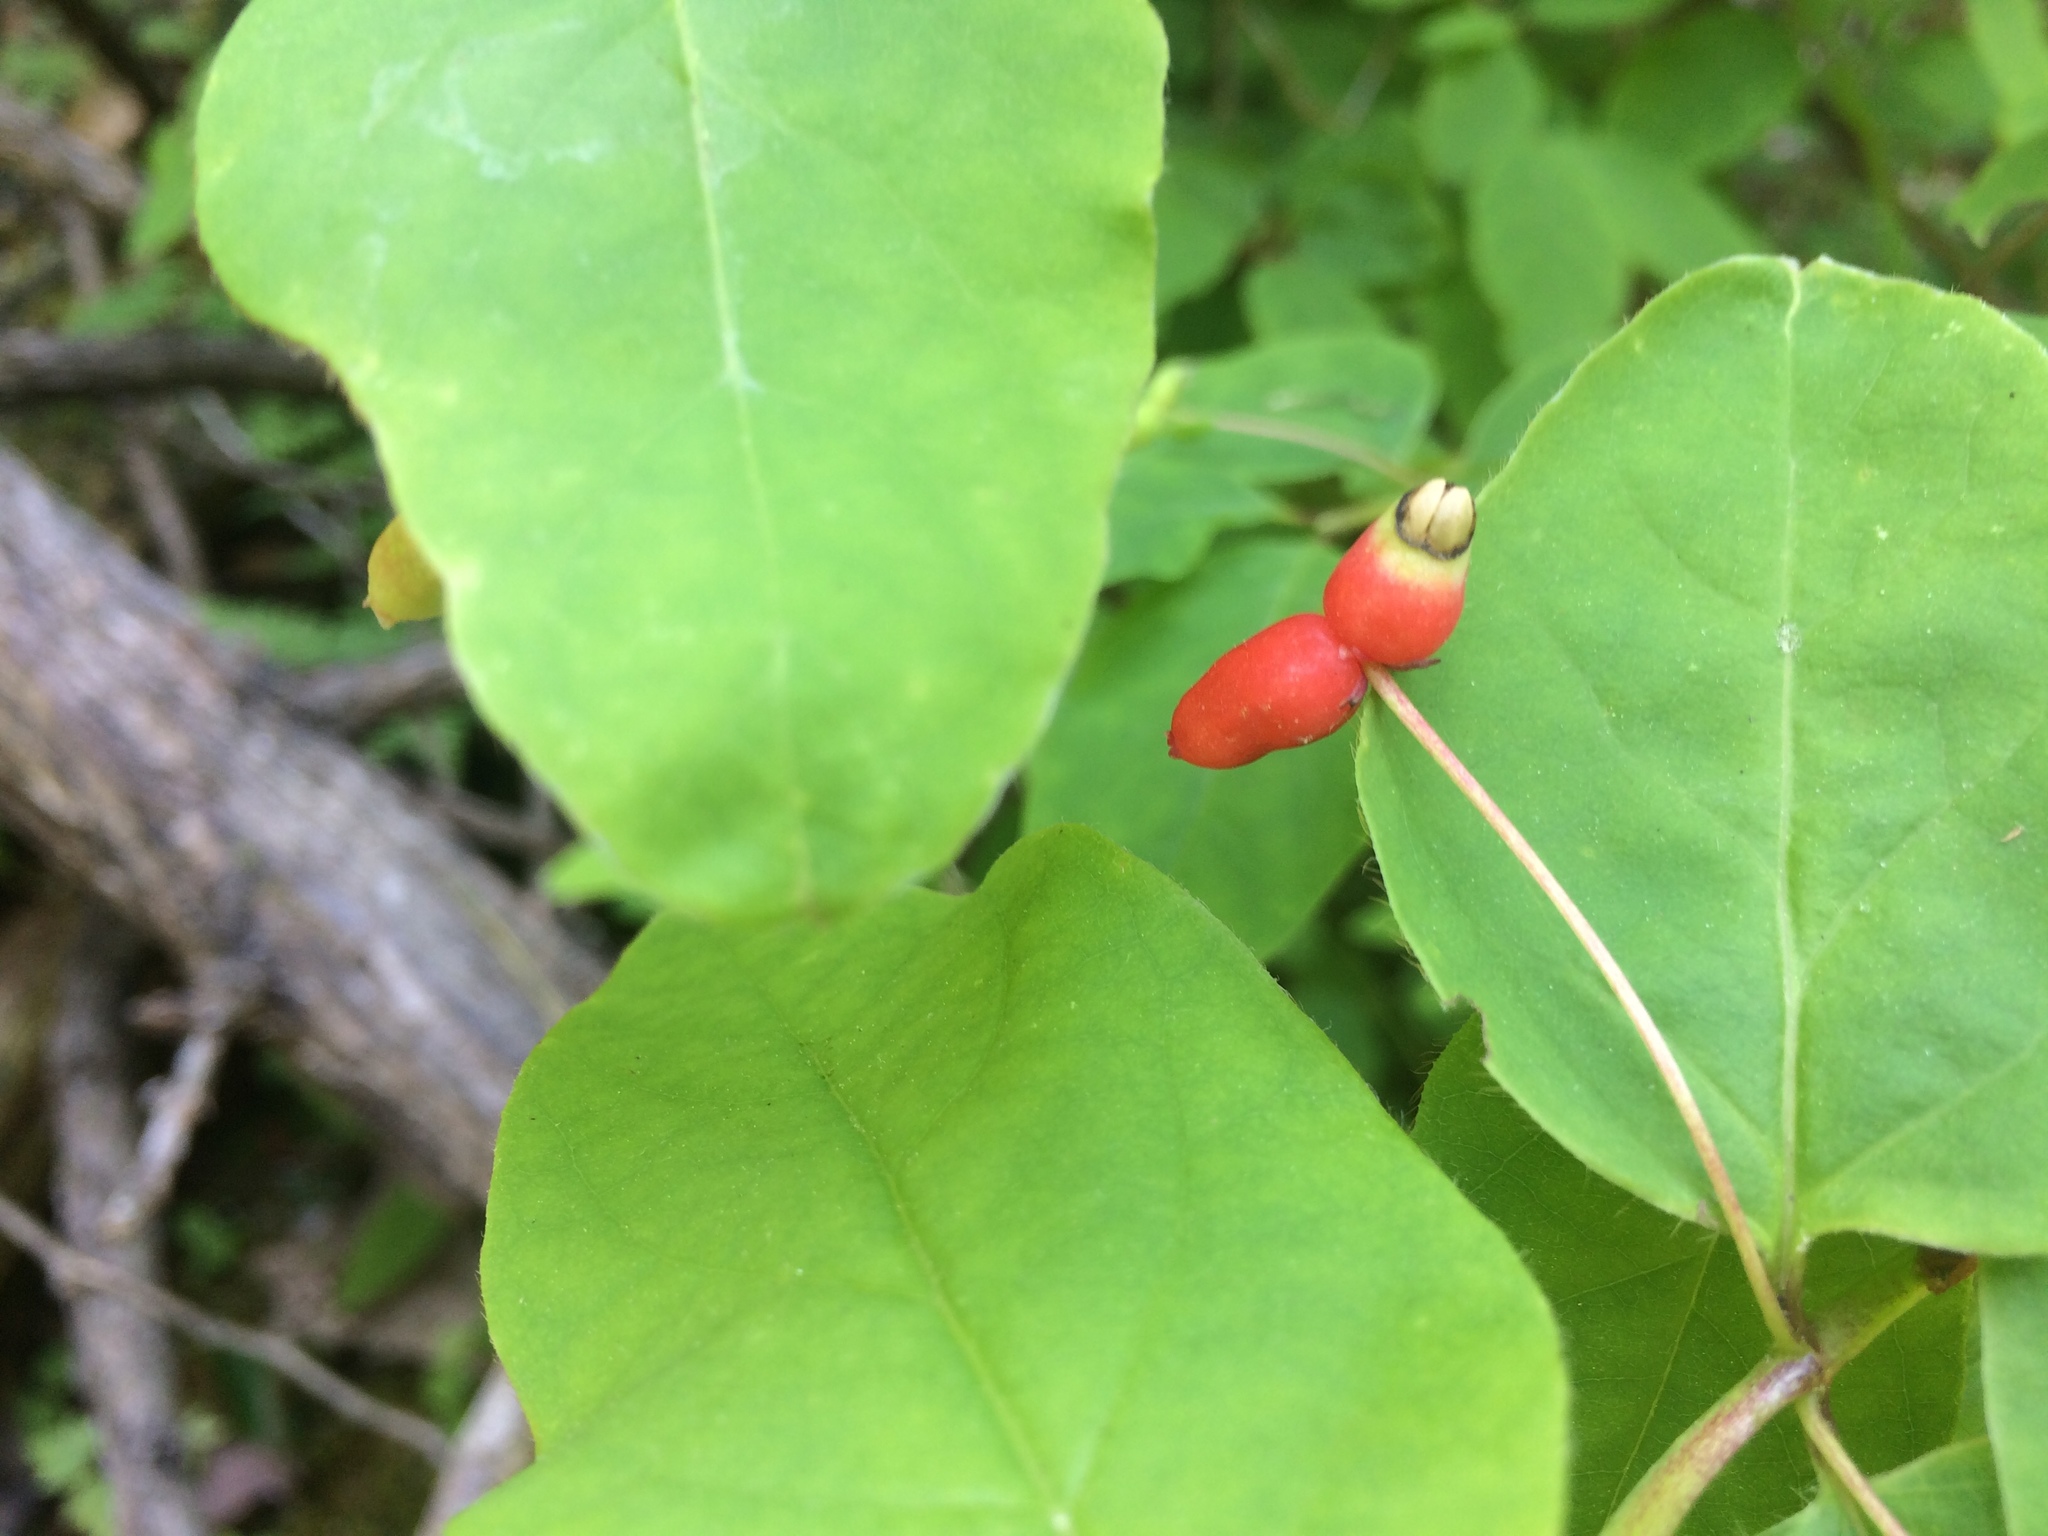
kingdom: Plantae
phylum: Tracheophyta
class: Magnoliopsida
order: Dipsacales
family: Caprifoliaceae
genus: Lonicera
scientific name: Lonicera canadensis
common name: American fly-honeysuckle
